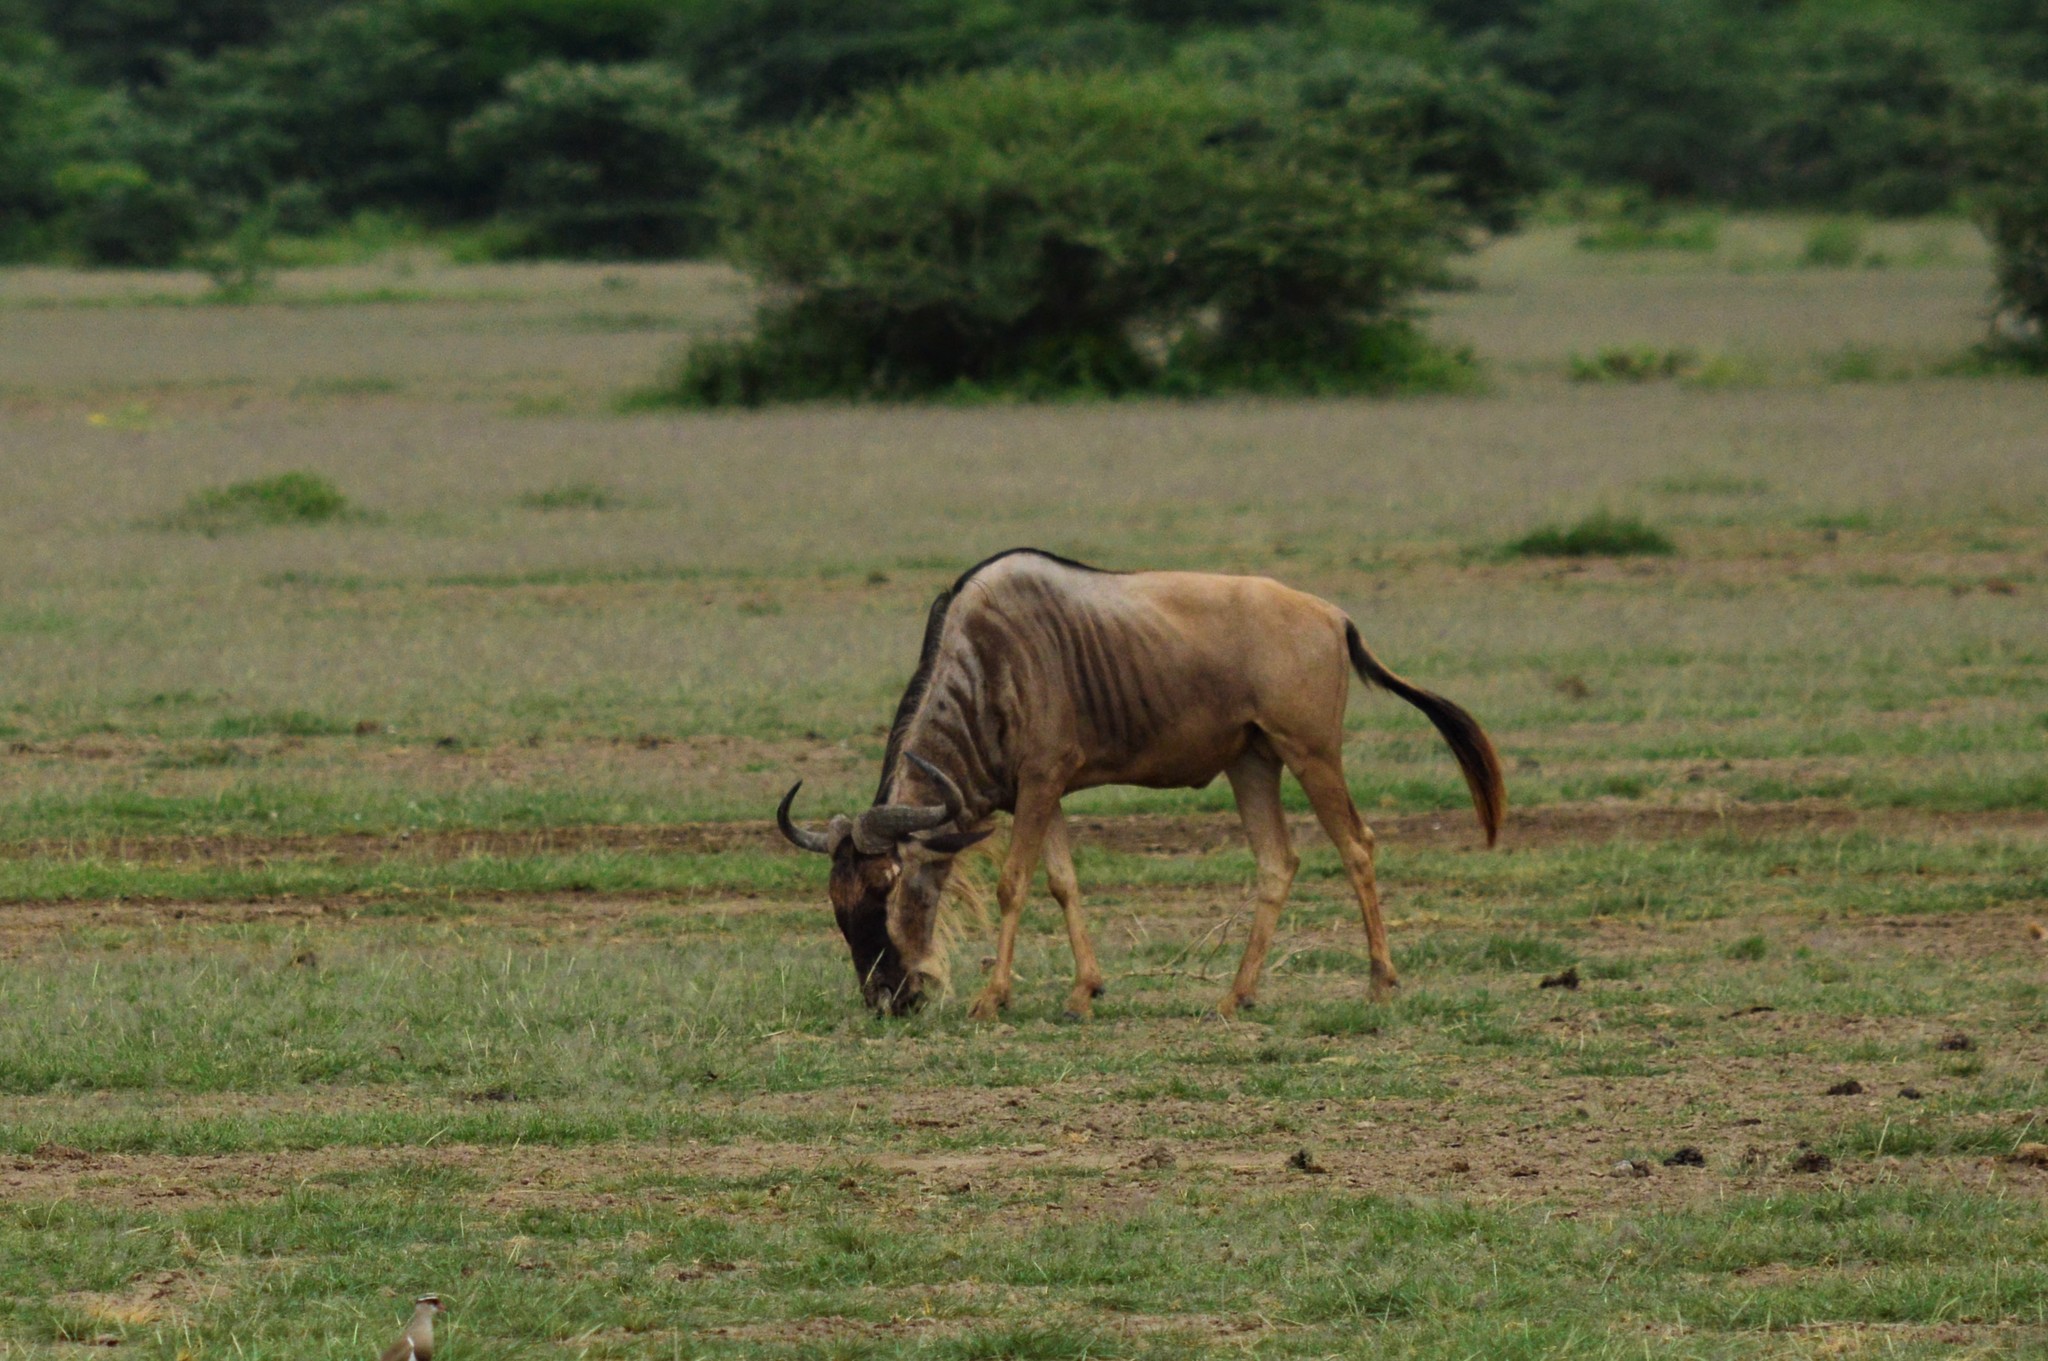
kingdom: Animalia
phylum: Chordata
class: Mammalia
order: Artiodactyla
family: Bovidae
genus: Connochaetes
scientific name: Connochaetes taurinus
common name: Blue wildebeest
